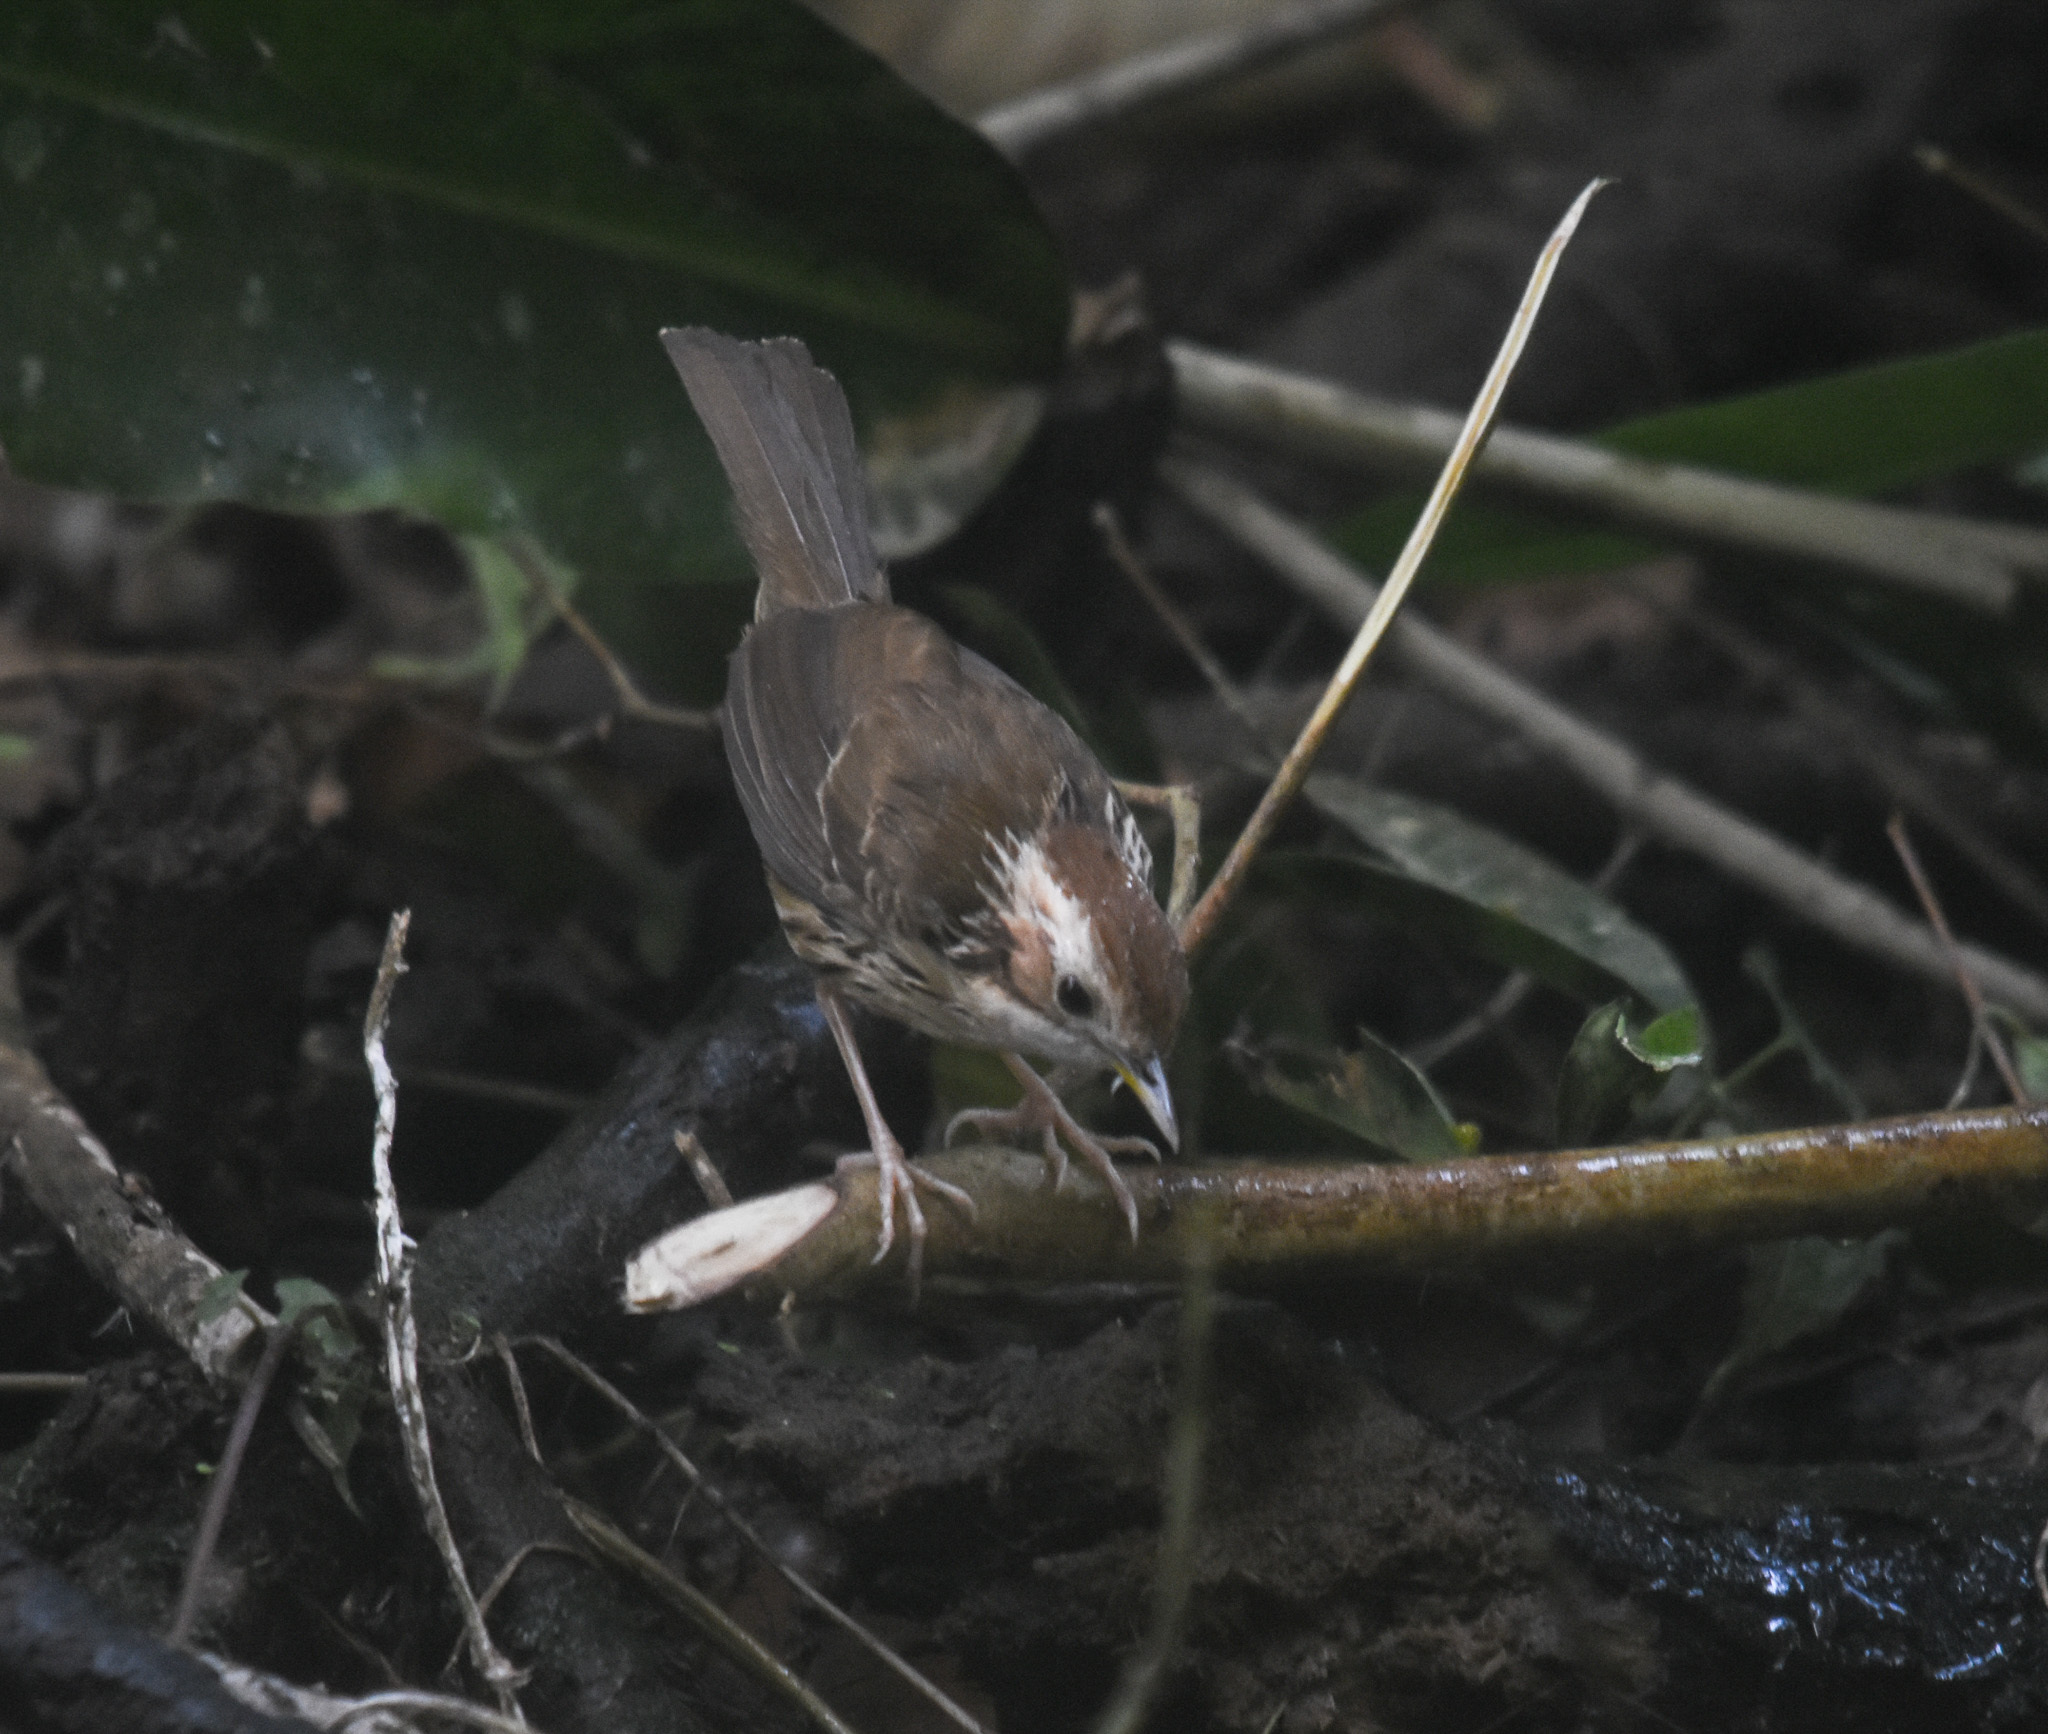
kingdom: Animalia
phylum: Chordata
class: Aves
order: Passeriformes
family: Pellorneidae
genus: Pellorneum
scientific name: Pellorneum ruficeps
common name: Puff-throated babbler
